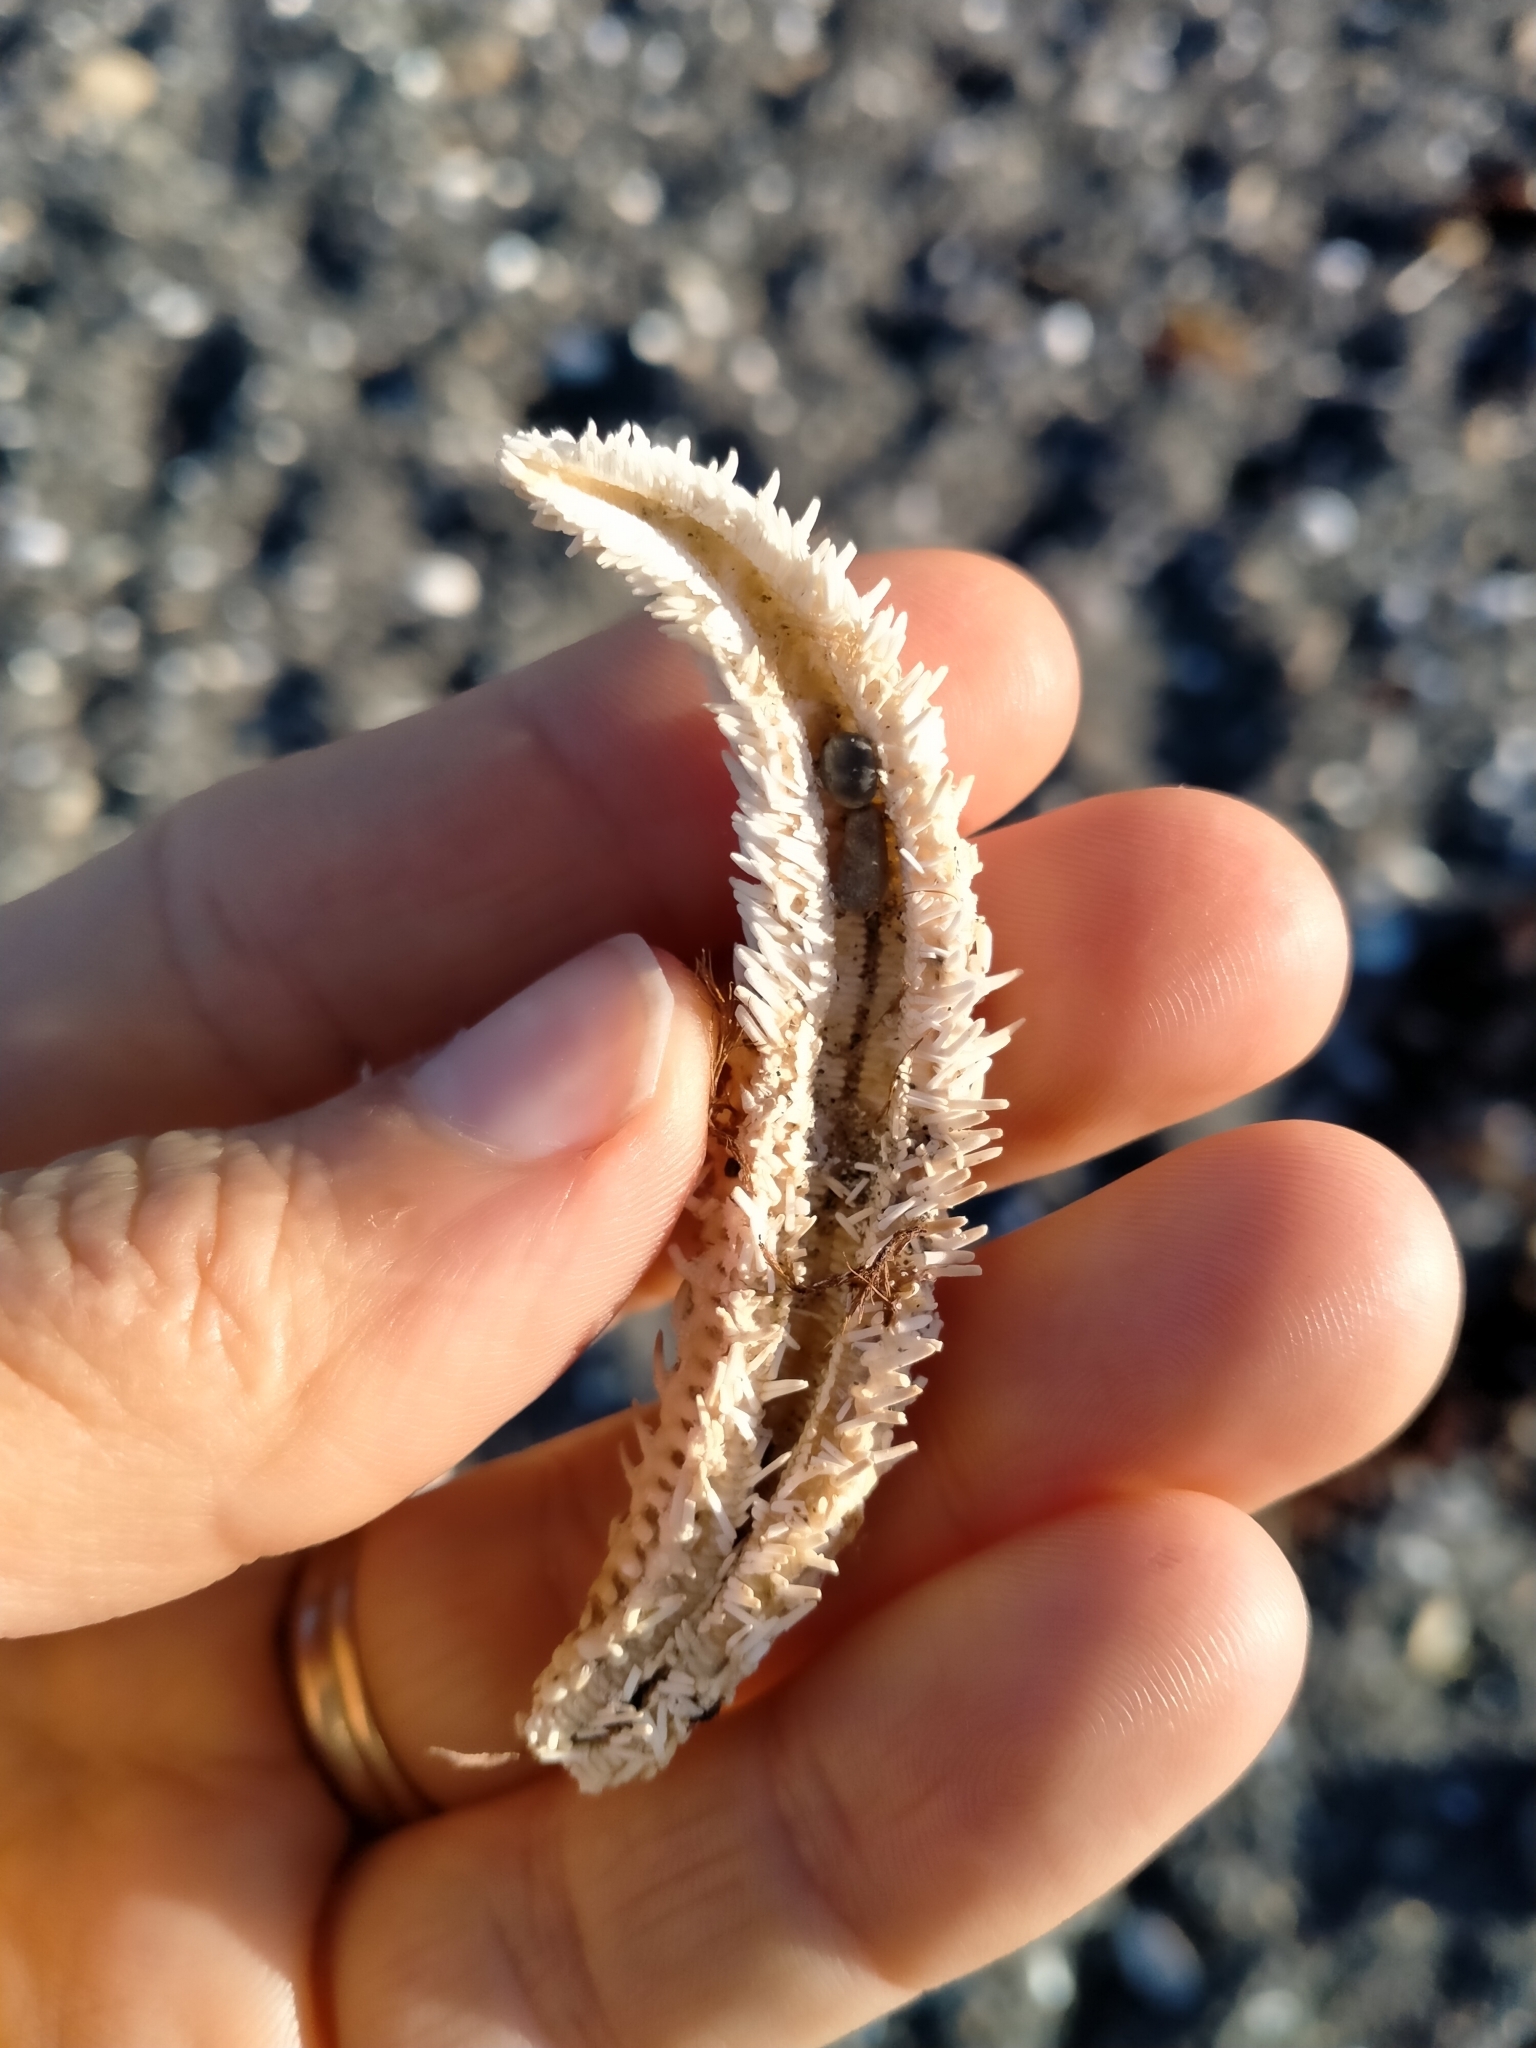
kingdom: Animalia
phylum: Echinodermata
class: Asteroidea
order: Forcipulatida
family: Asteriidae
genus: Coscinasterias
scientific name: Coscinasterias muricata
